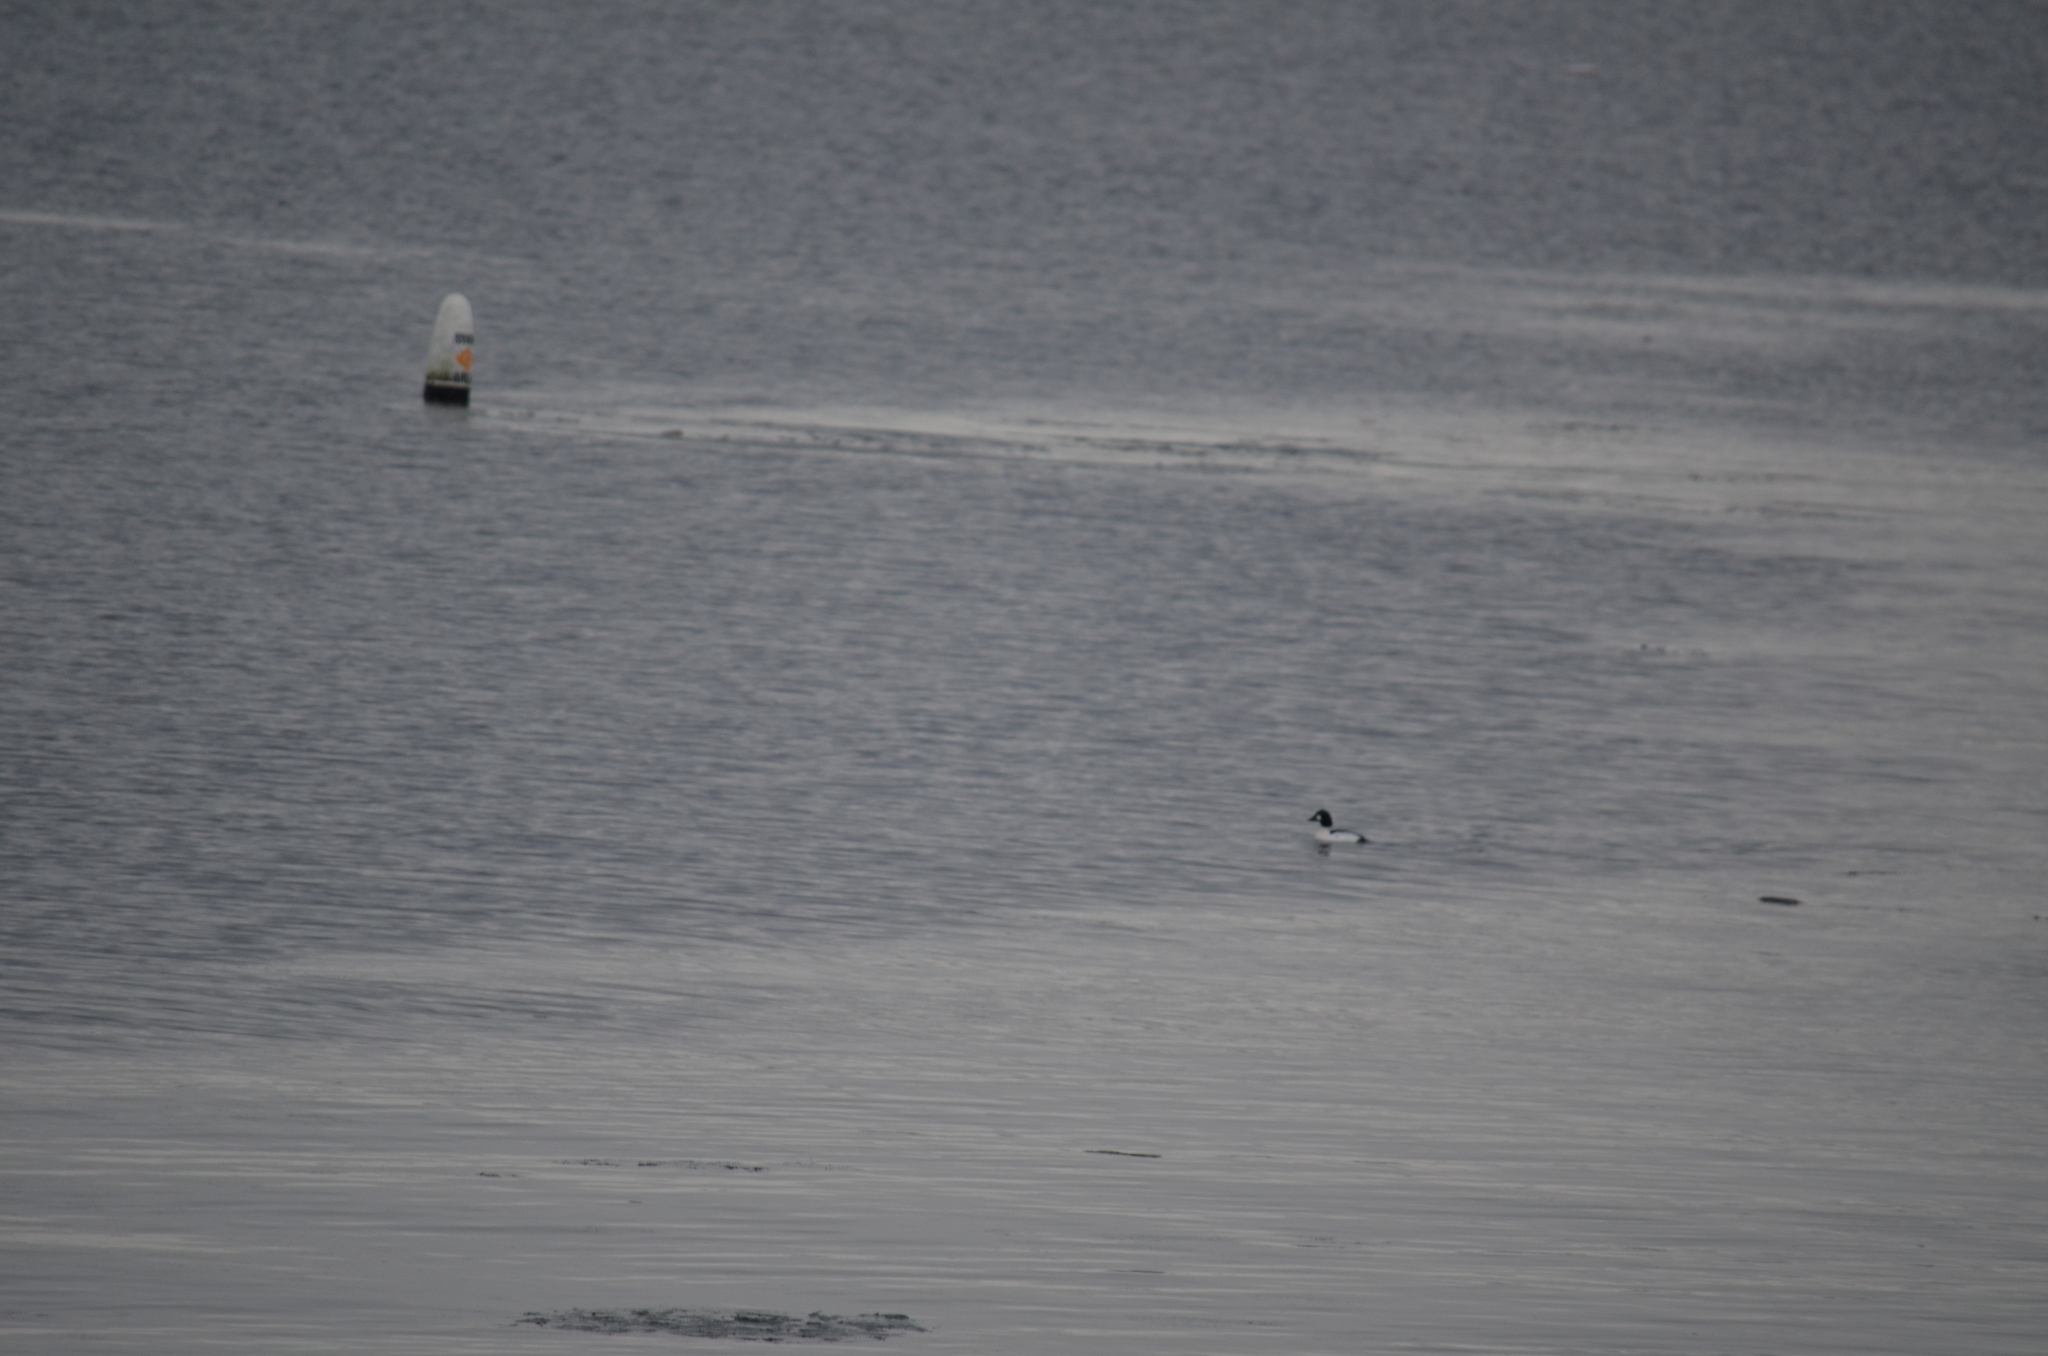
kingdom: Animalia
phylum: Chordata
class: Aves
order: Anseriformes
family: Anatidae
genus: Bucephala
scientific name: Bucephala clangula
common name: Common goldeneye
